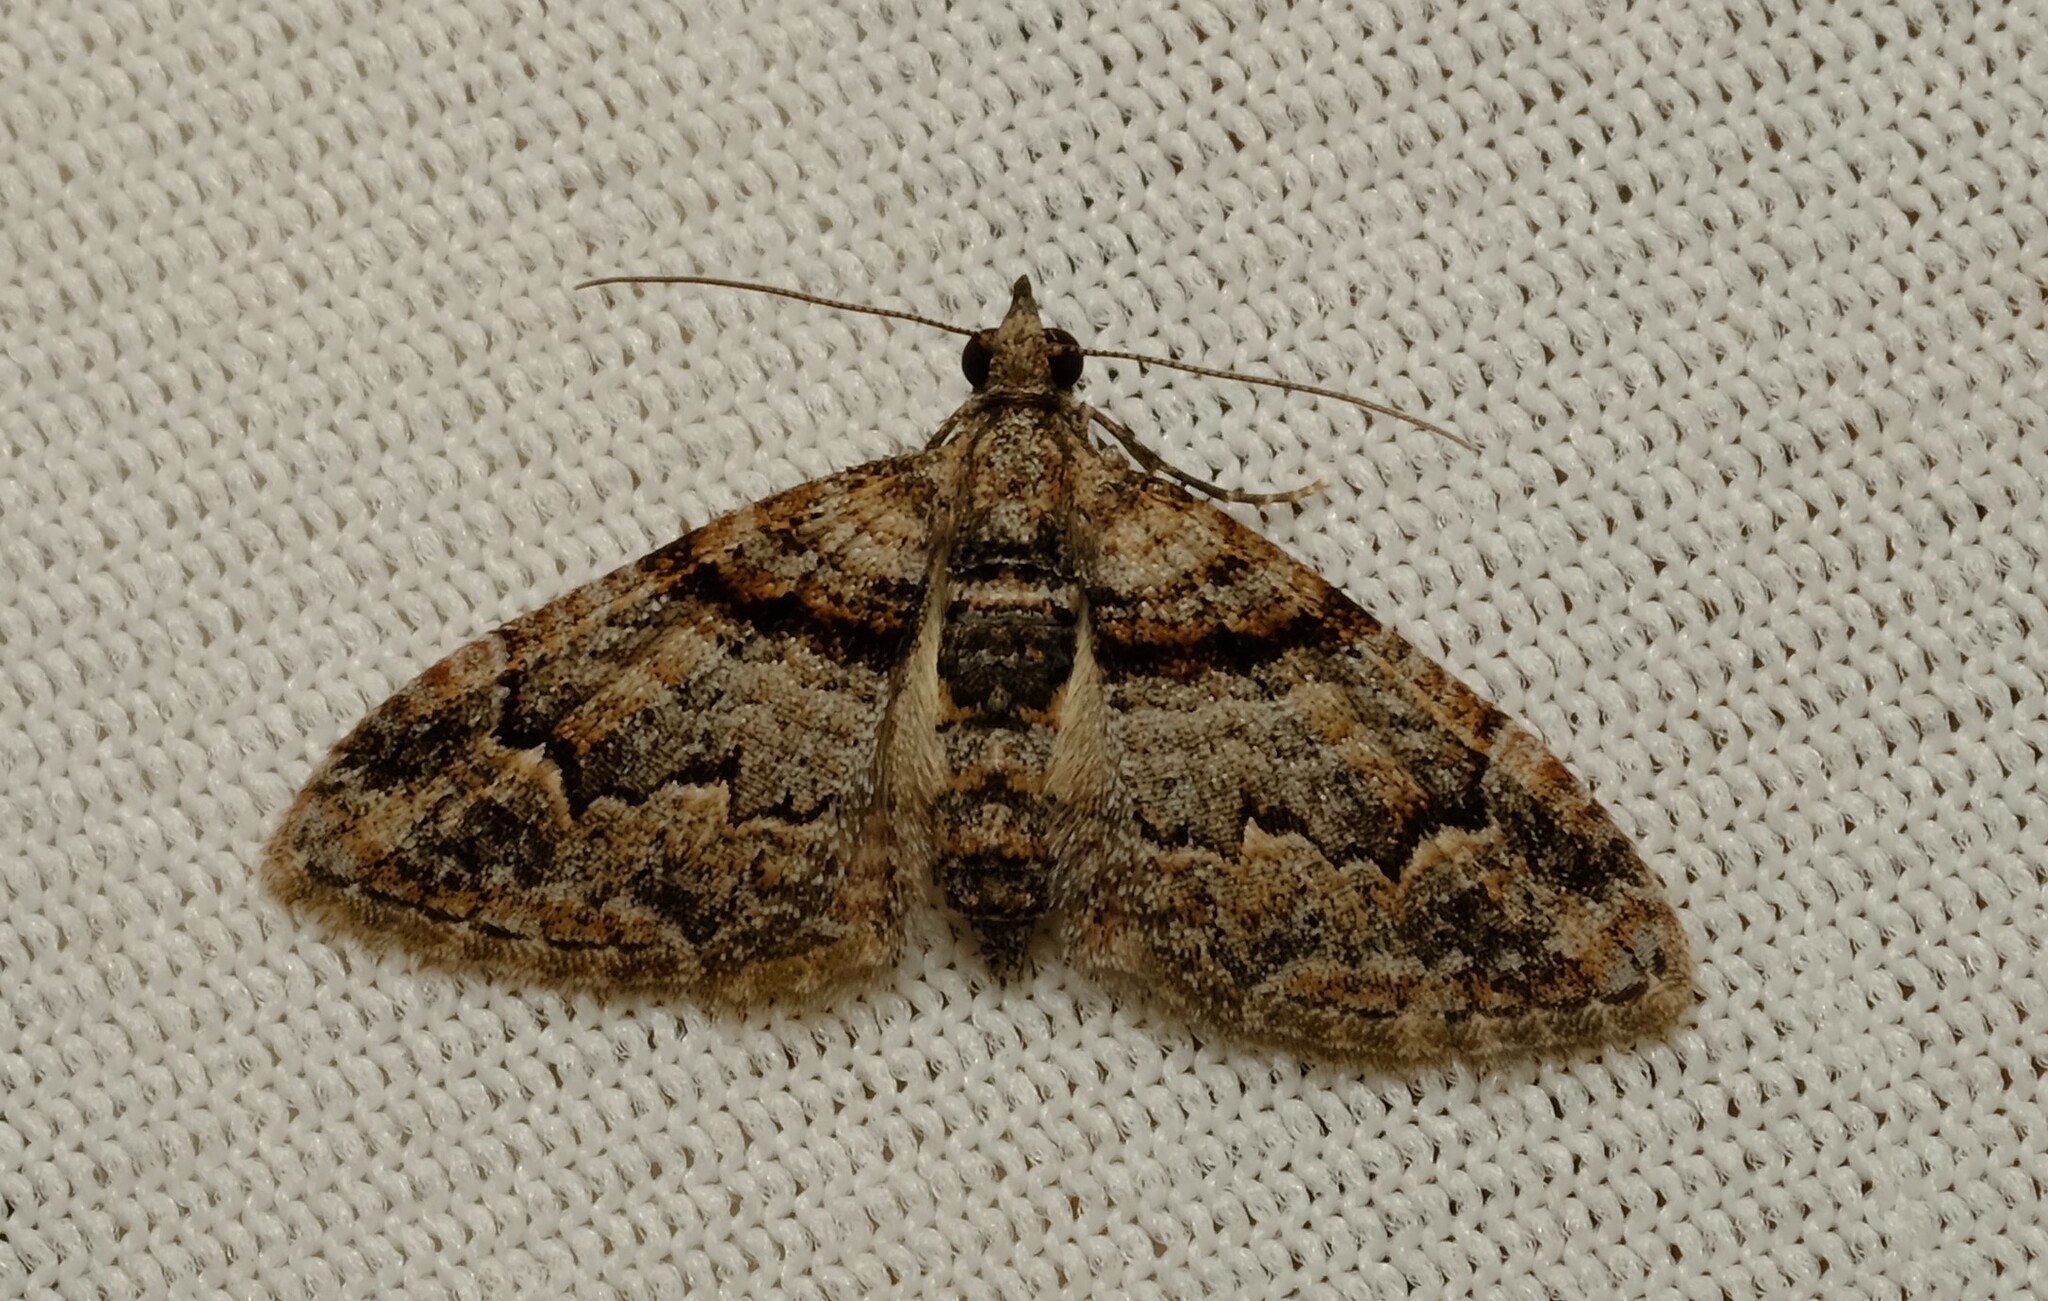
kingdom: Animalia
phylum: Arthropoda
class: Insecta
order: Lepidoptera
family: Geometridae
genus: Phrissogonus
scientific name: Phrissogonus laticostata
